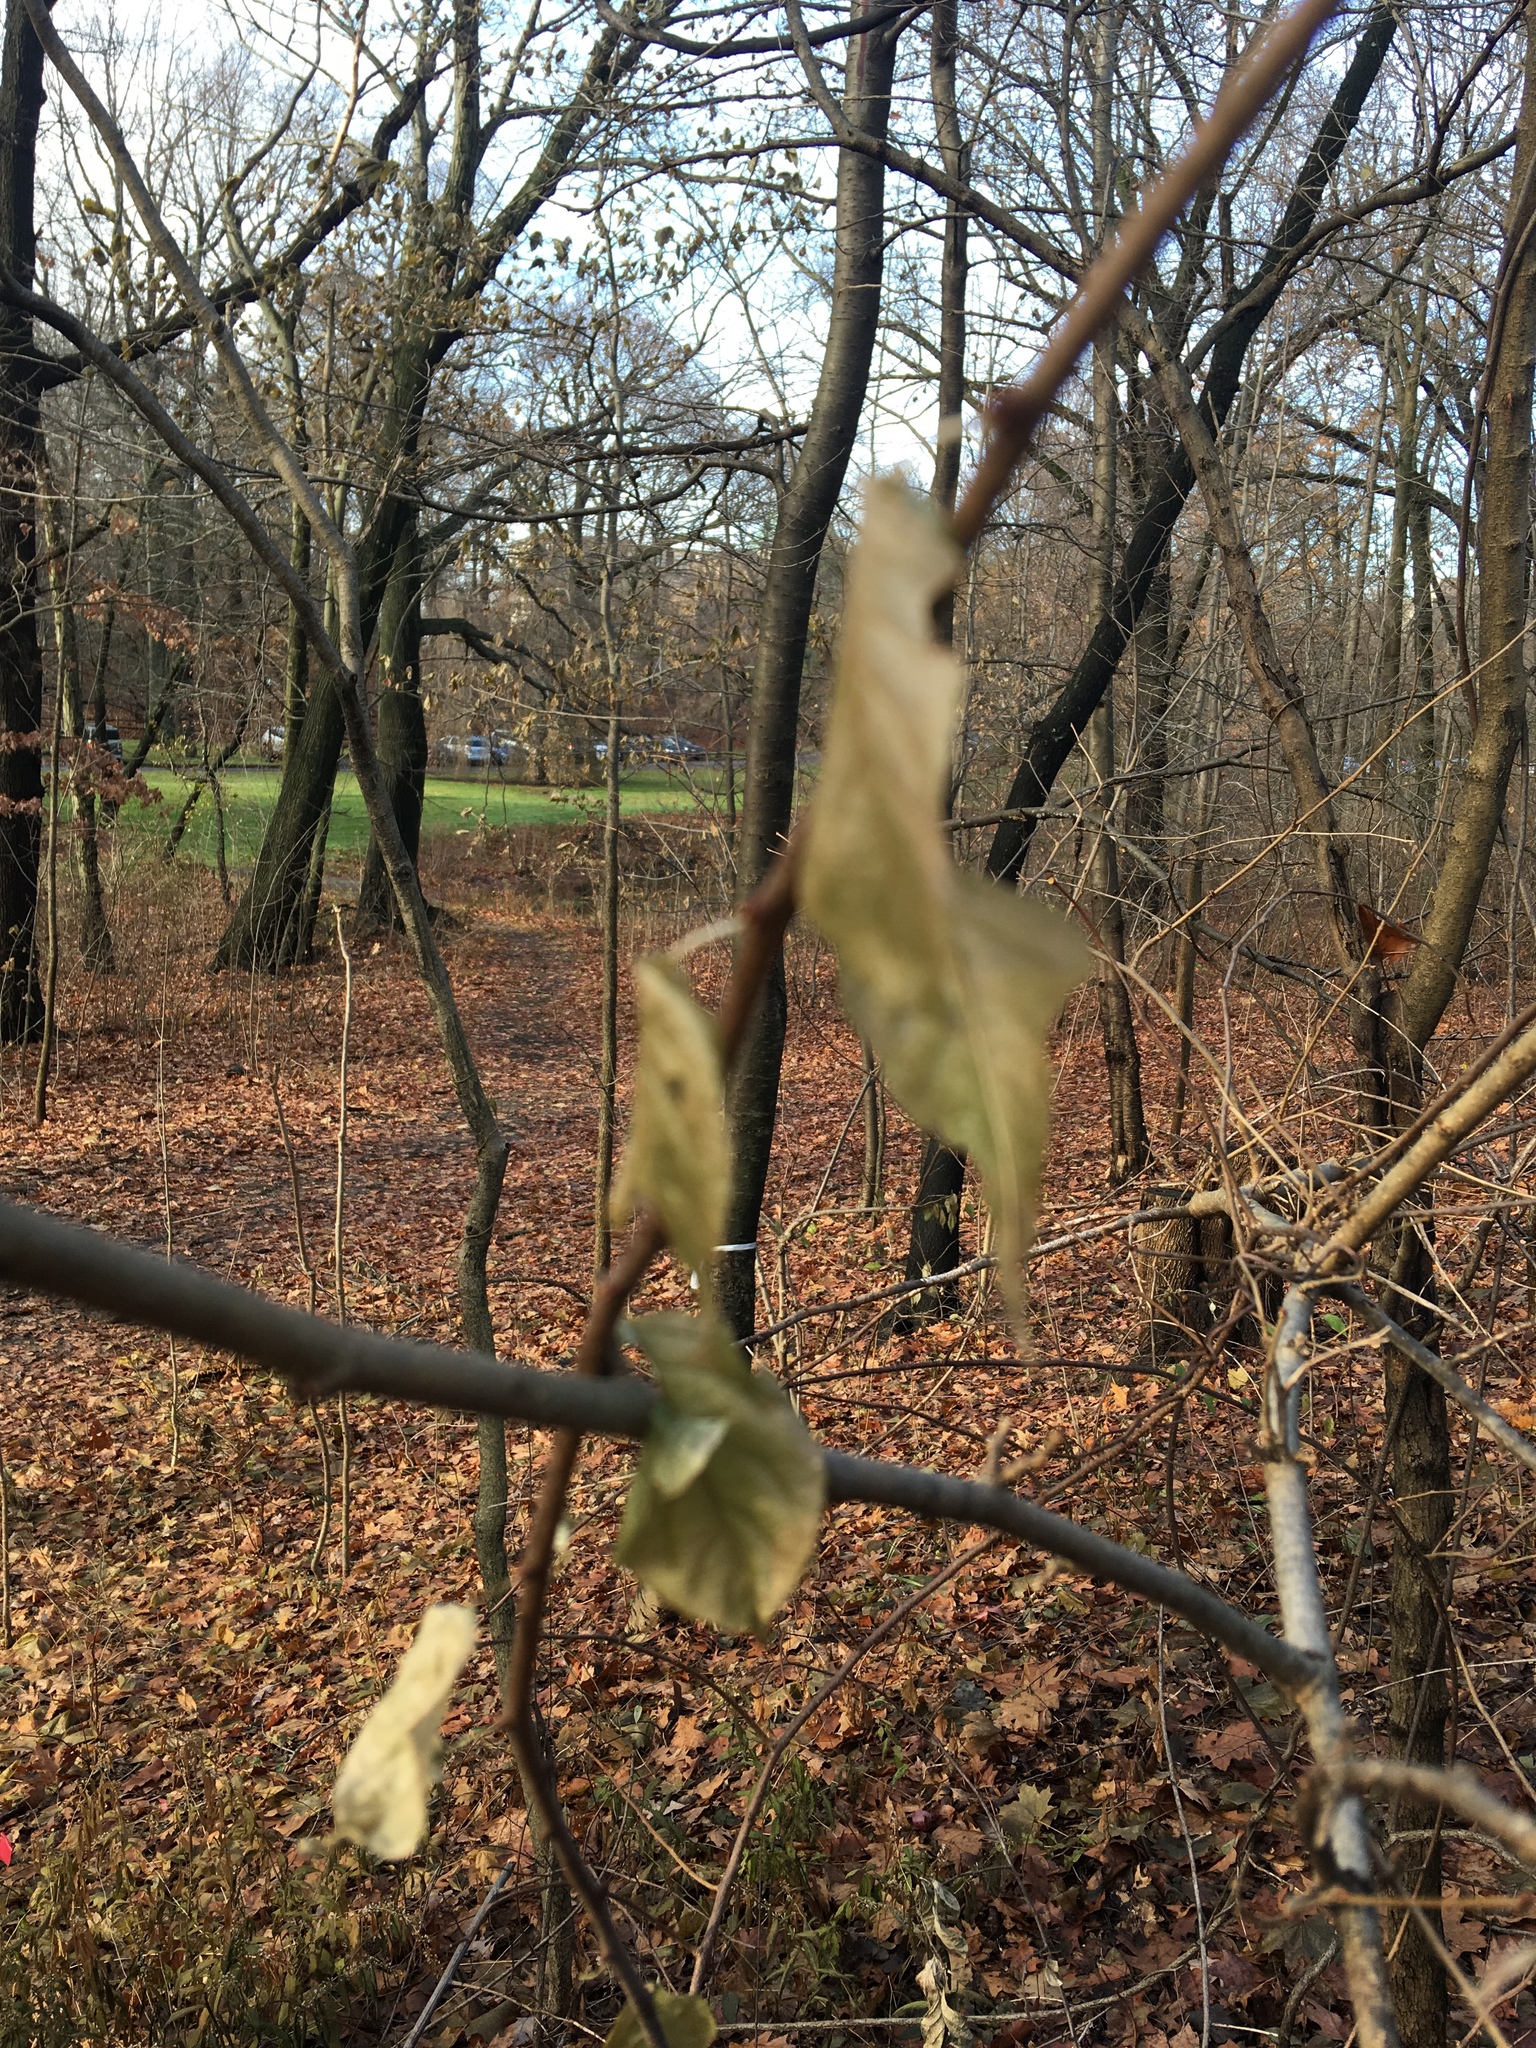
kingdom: Plantae
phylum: Tracheophyta
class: Magnoliopsida
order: Celastrales
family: Celastraceae
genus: Celastrus
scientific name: Celastrus orbiculatus
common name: Oriental bittersweet
